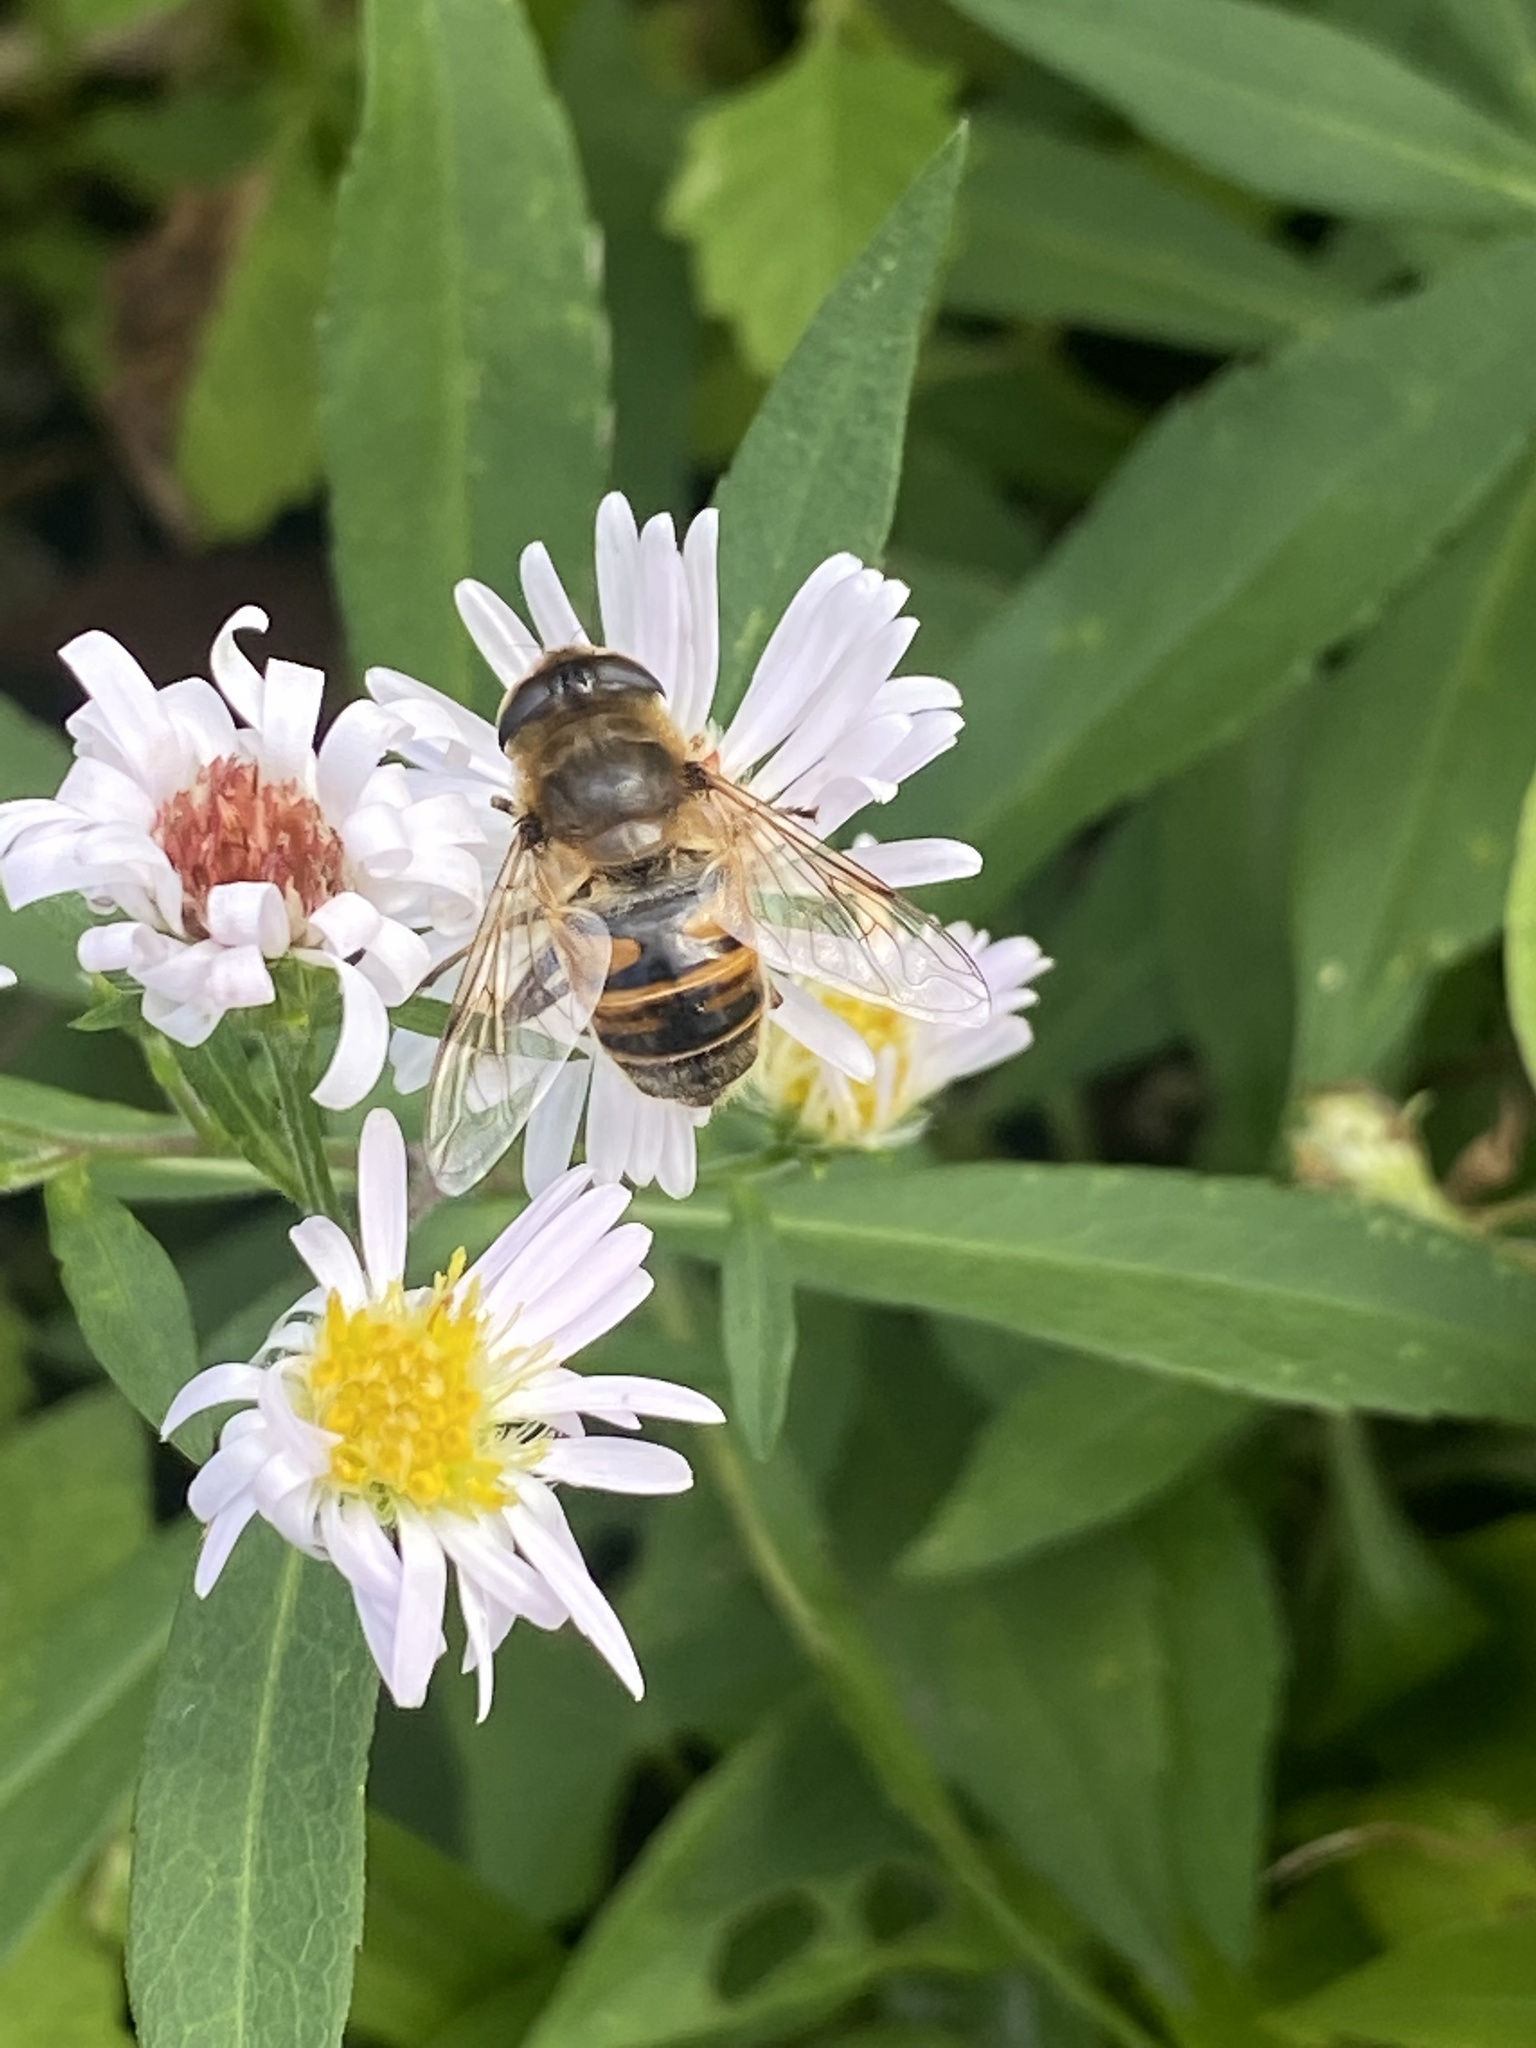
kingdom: Animalia
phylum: Arthropoda
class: Insecta
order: Diptera
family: Syrphidae
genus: Eristalis
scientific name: Eristalis tenax
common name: Drone fly
